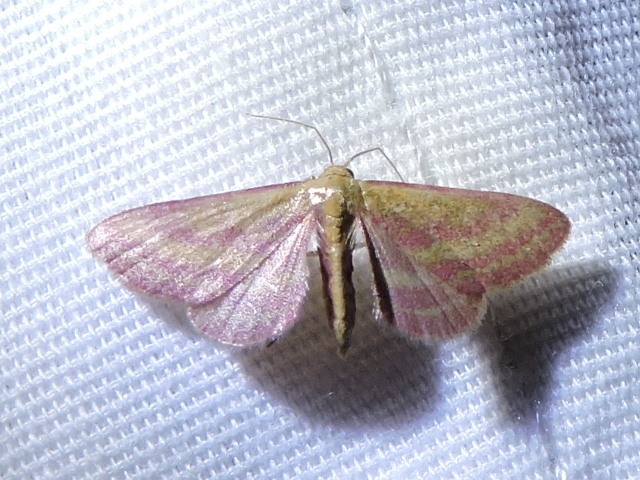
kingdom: Animalia
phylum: Arthropoda
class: Insecta
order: Lepidoptera
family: Geometridae
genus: Leptostales
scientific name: Leptostales laevitaria
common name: Raspberry wave moth
